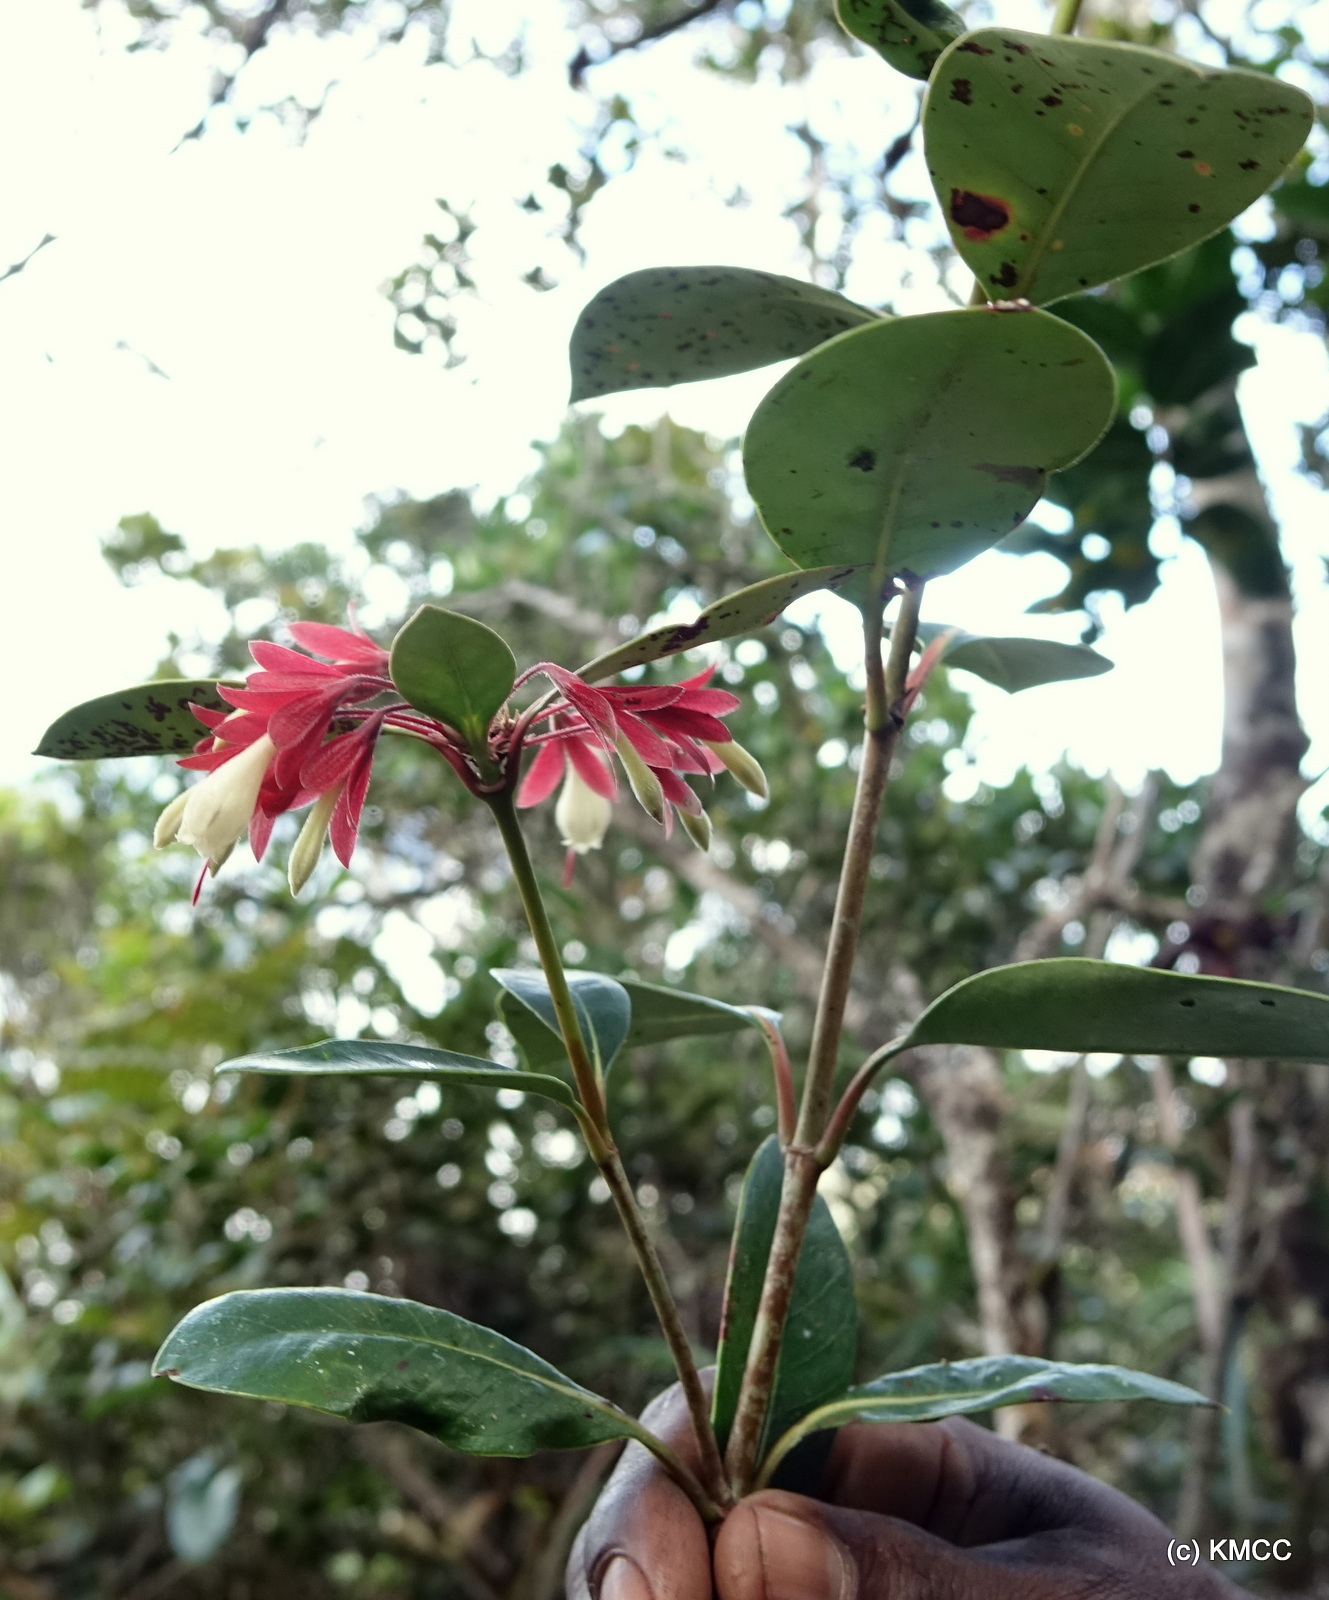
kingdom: Plantae
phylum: Tracheophyta
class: Magnoliopsida
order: Gentianales
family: Rubiaceae
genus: Razafimandimbisonia
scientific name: Razafimandimbisonia minor
